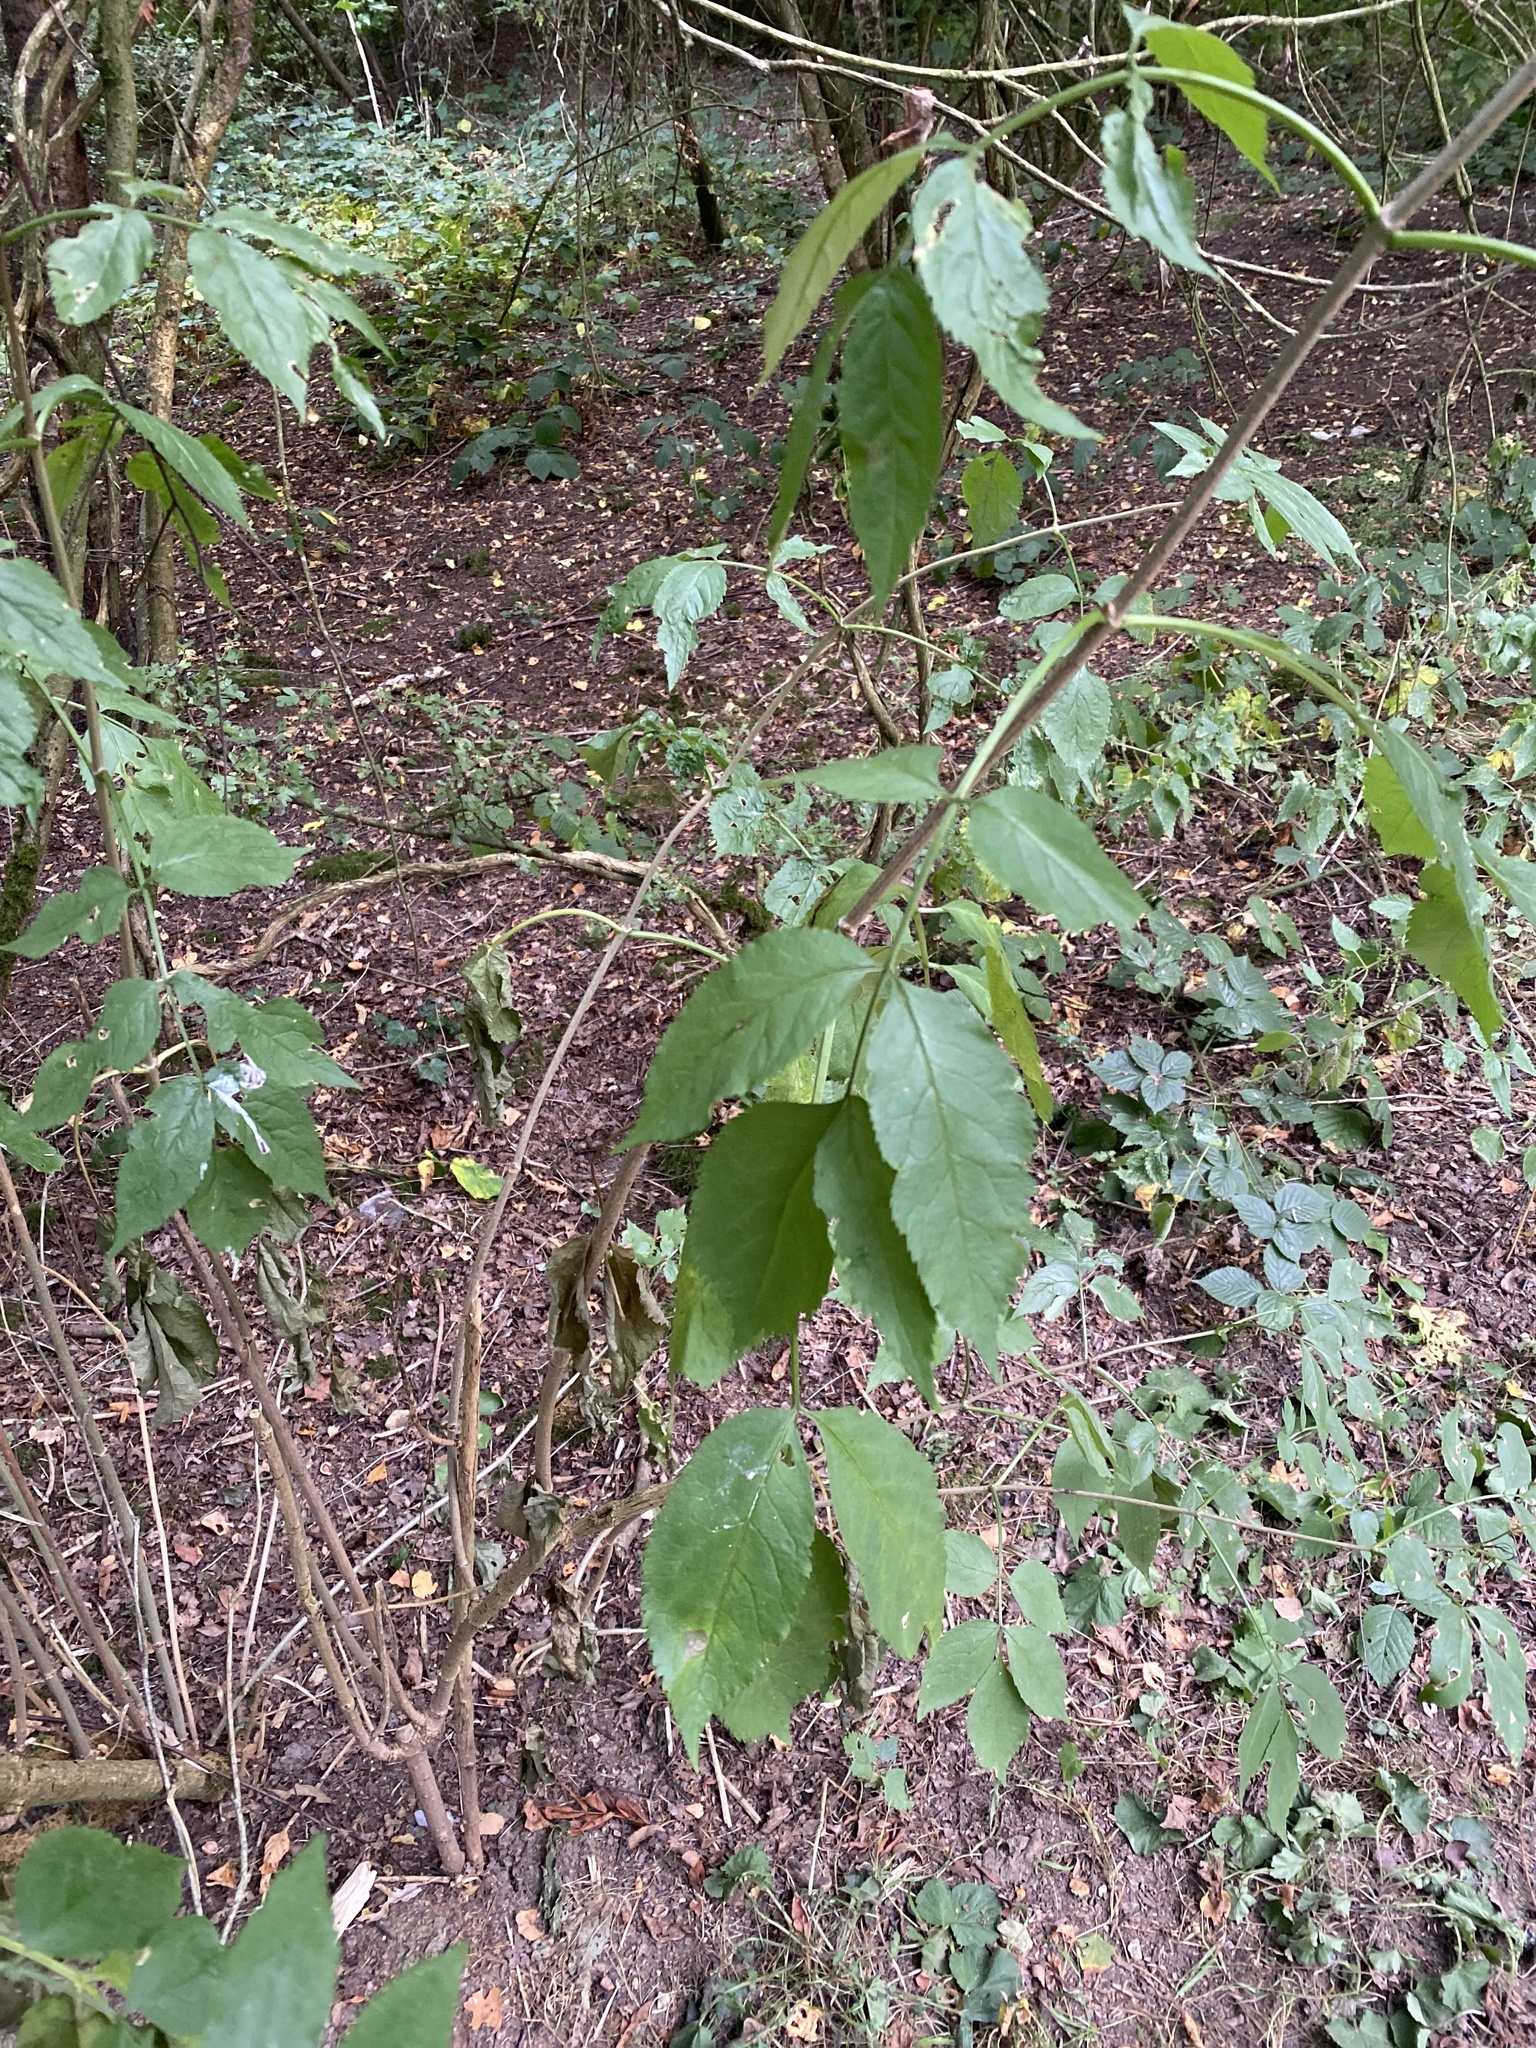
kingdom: Plantae
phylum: Tracheophyta
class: Magnoliopsida
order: Dipsacales
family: Viburnaceae
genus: Sambucus
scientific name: Sambucus nigra
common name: Elder
